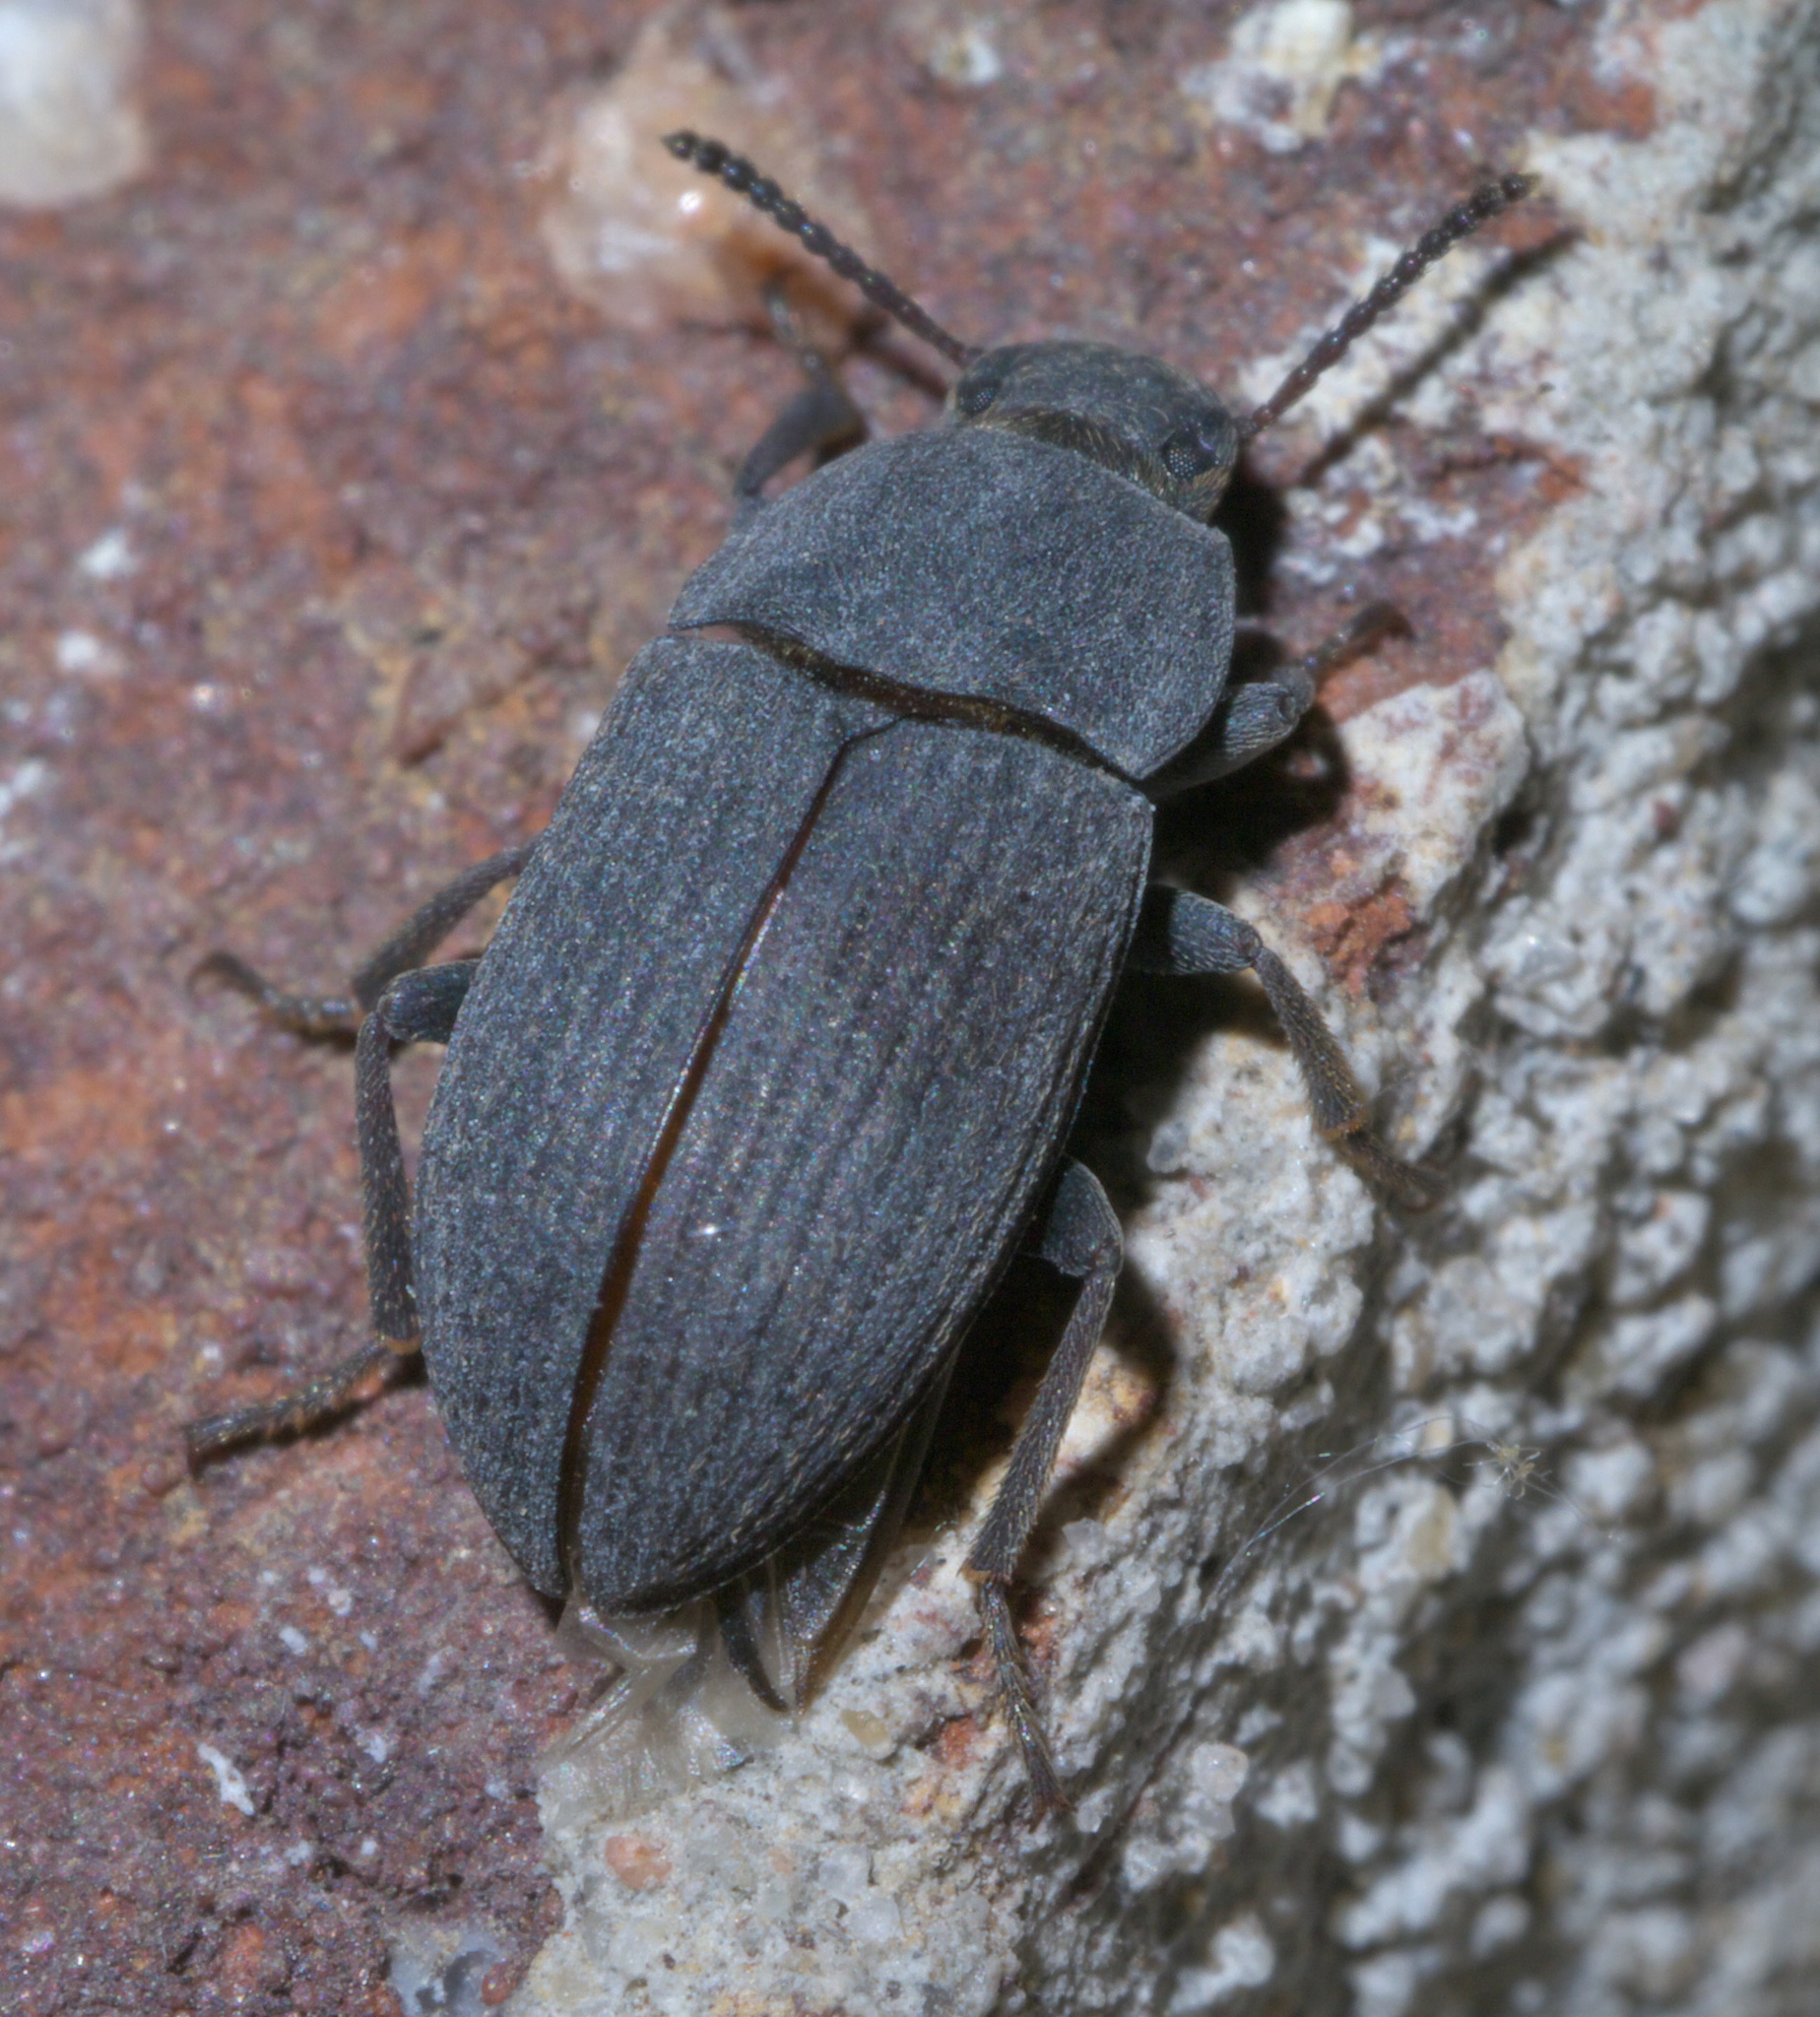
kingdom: Animalia
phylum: Arthropoda
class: Insecta
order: Coleoptera
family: Tenebrionidae
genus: Blapstinus
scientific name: Blapstinus fortis
